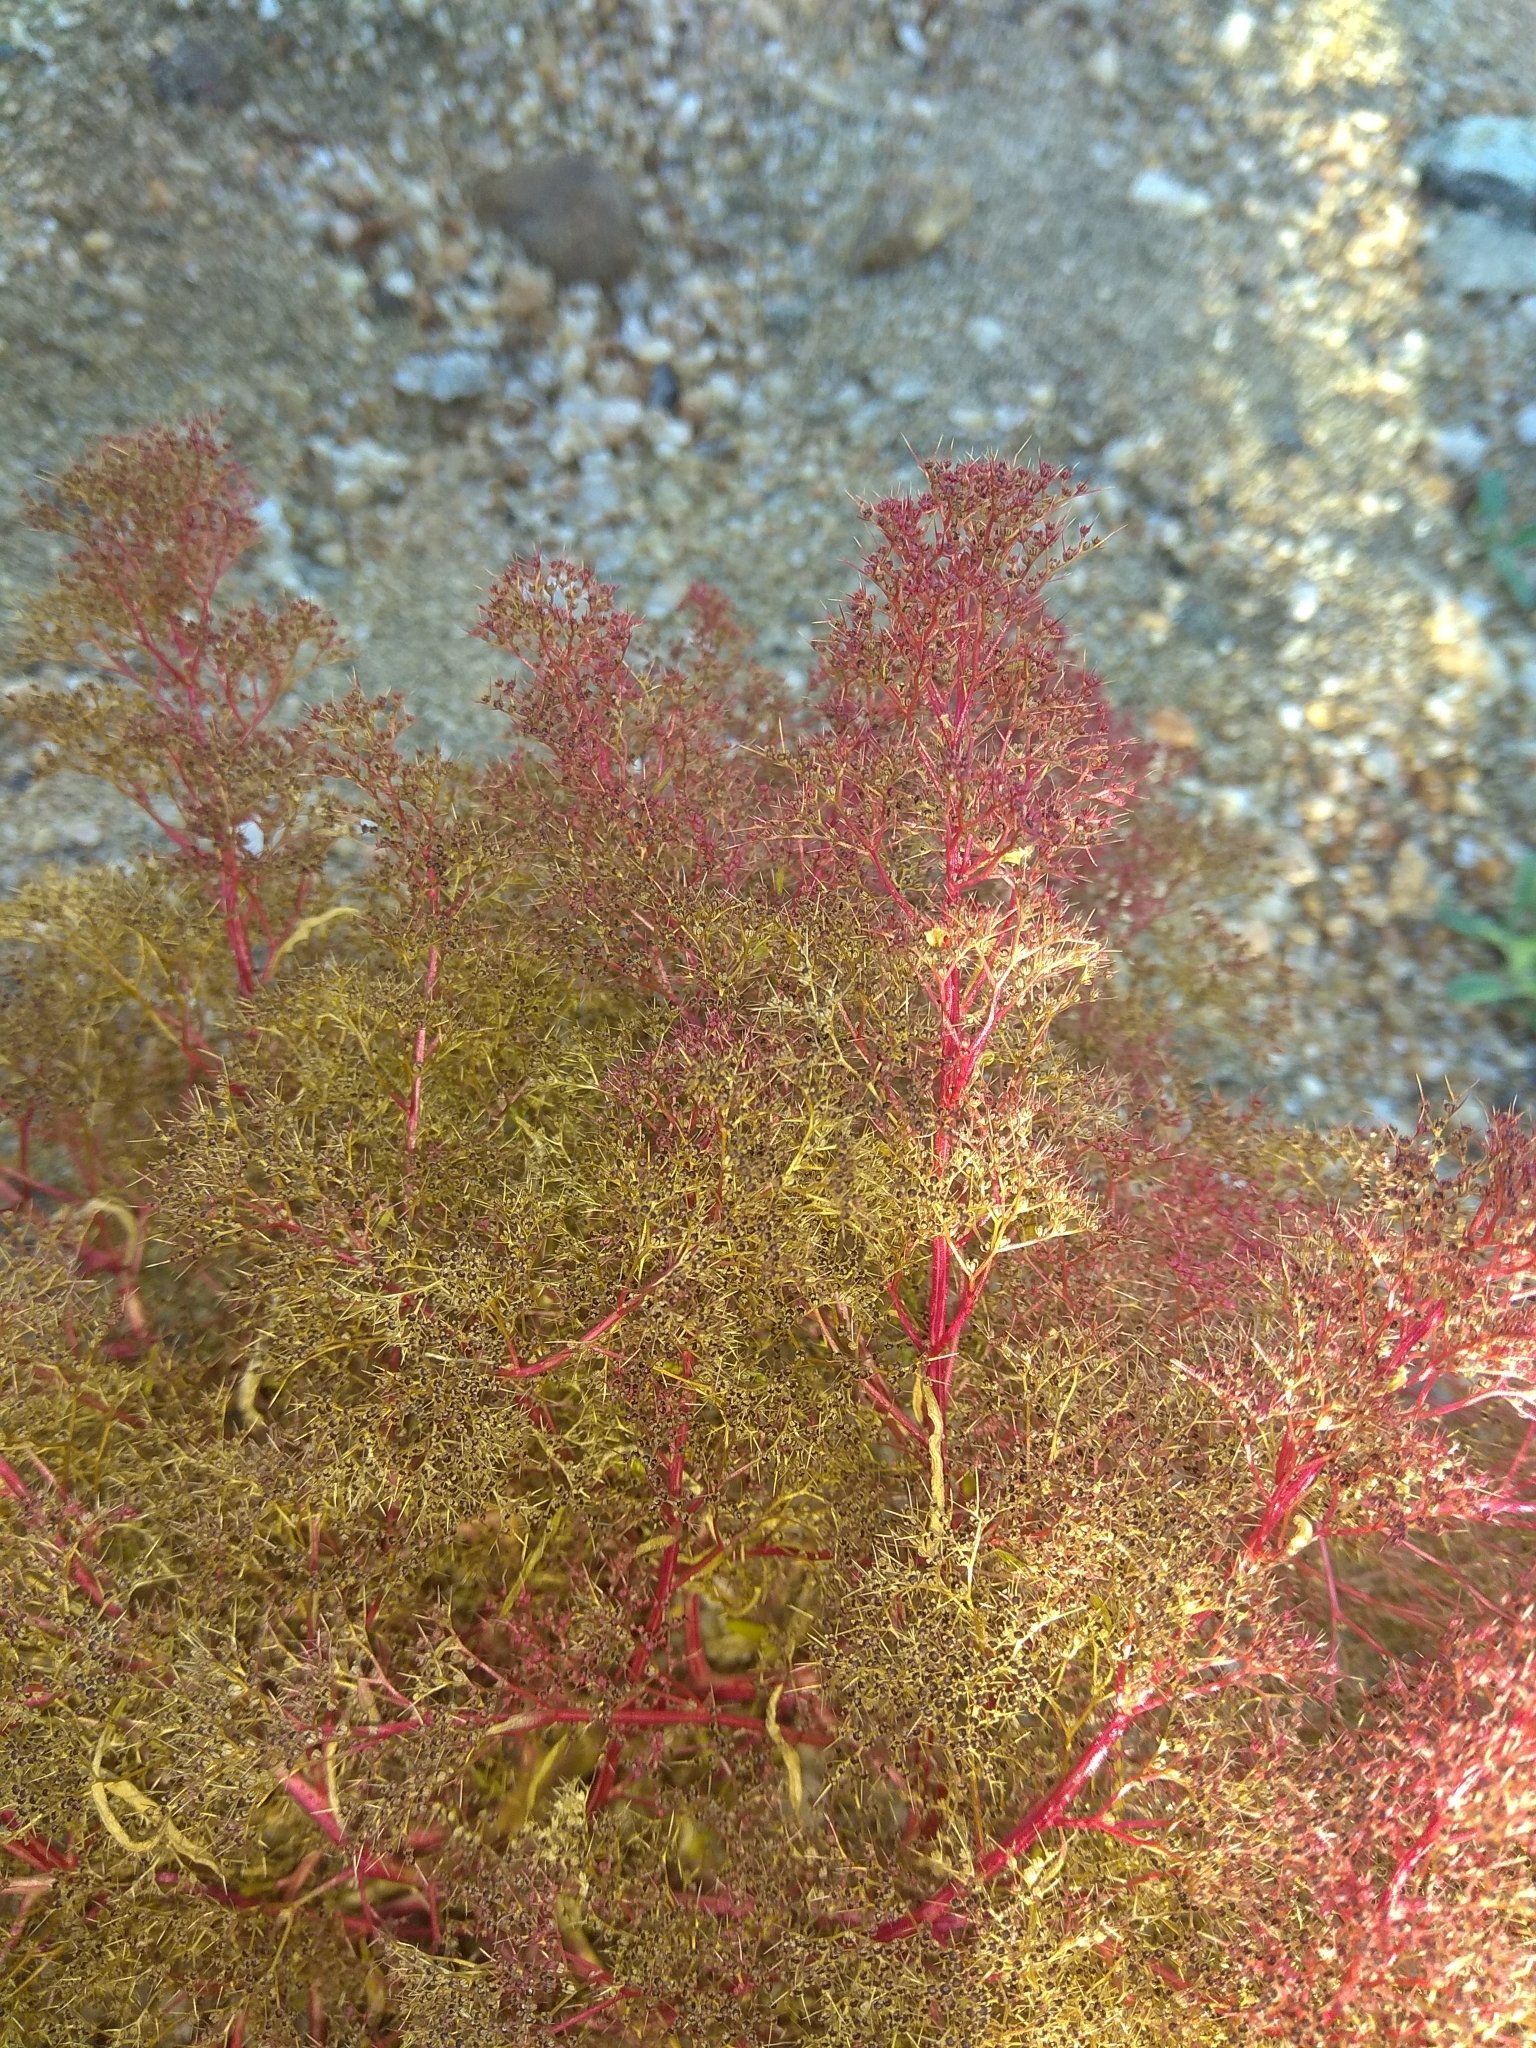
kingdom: Plantae
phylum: Tracheophyta
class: Magnoliopsida
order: Caryophyllales
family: Amaranthaceae
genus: Teloxys
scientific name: Teloxys aristata
